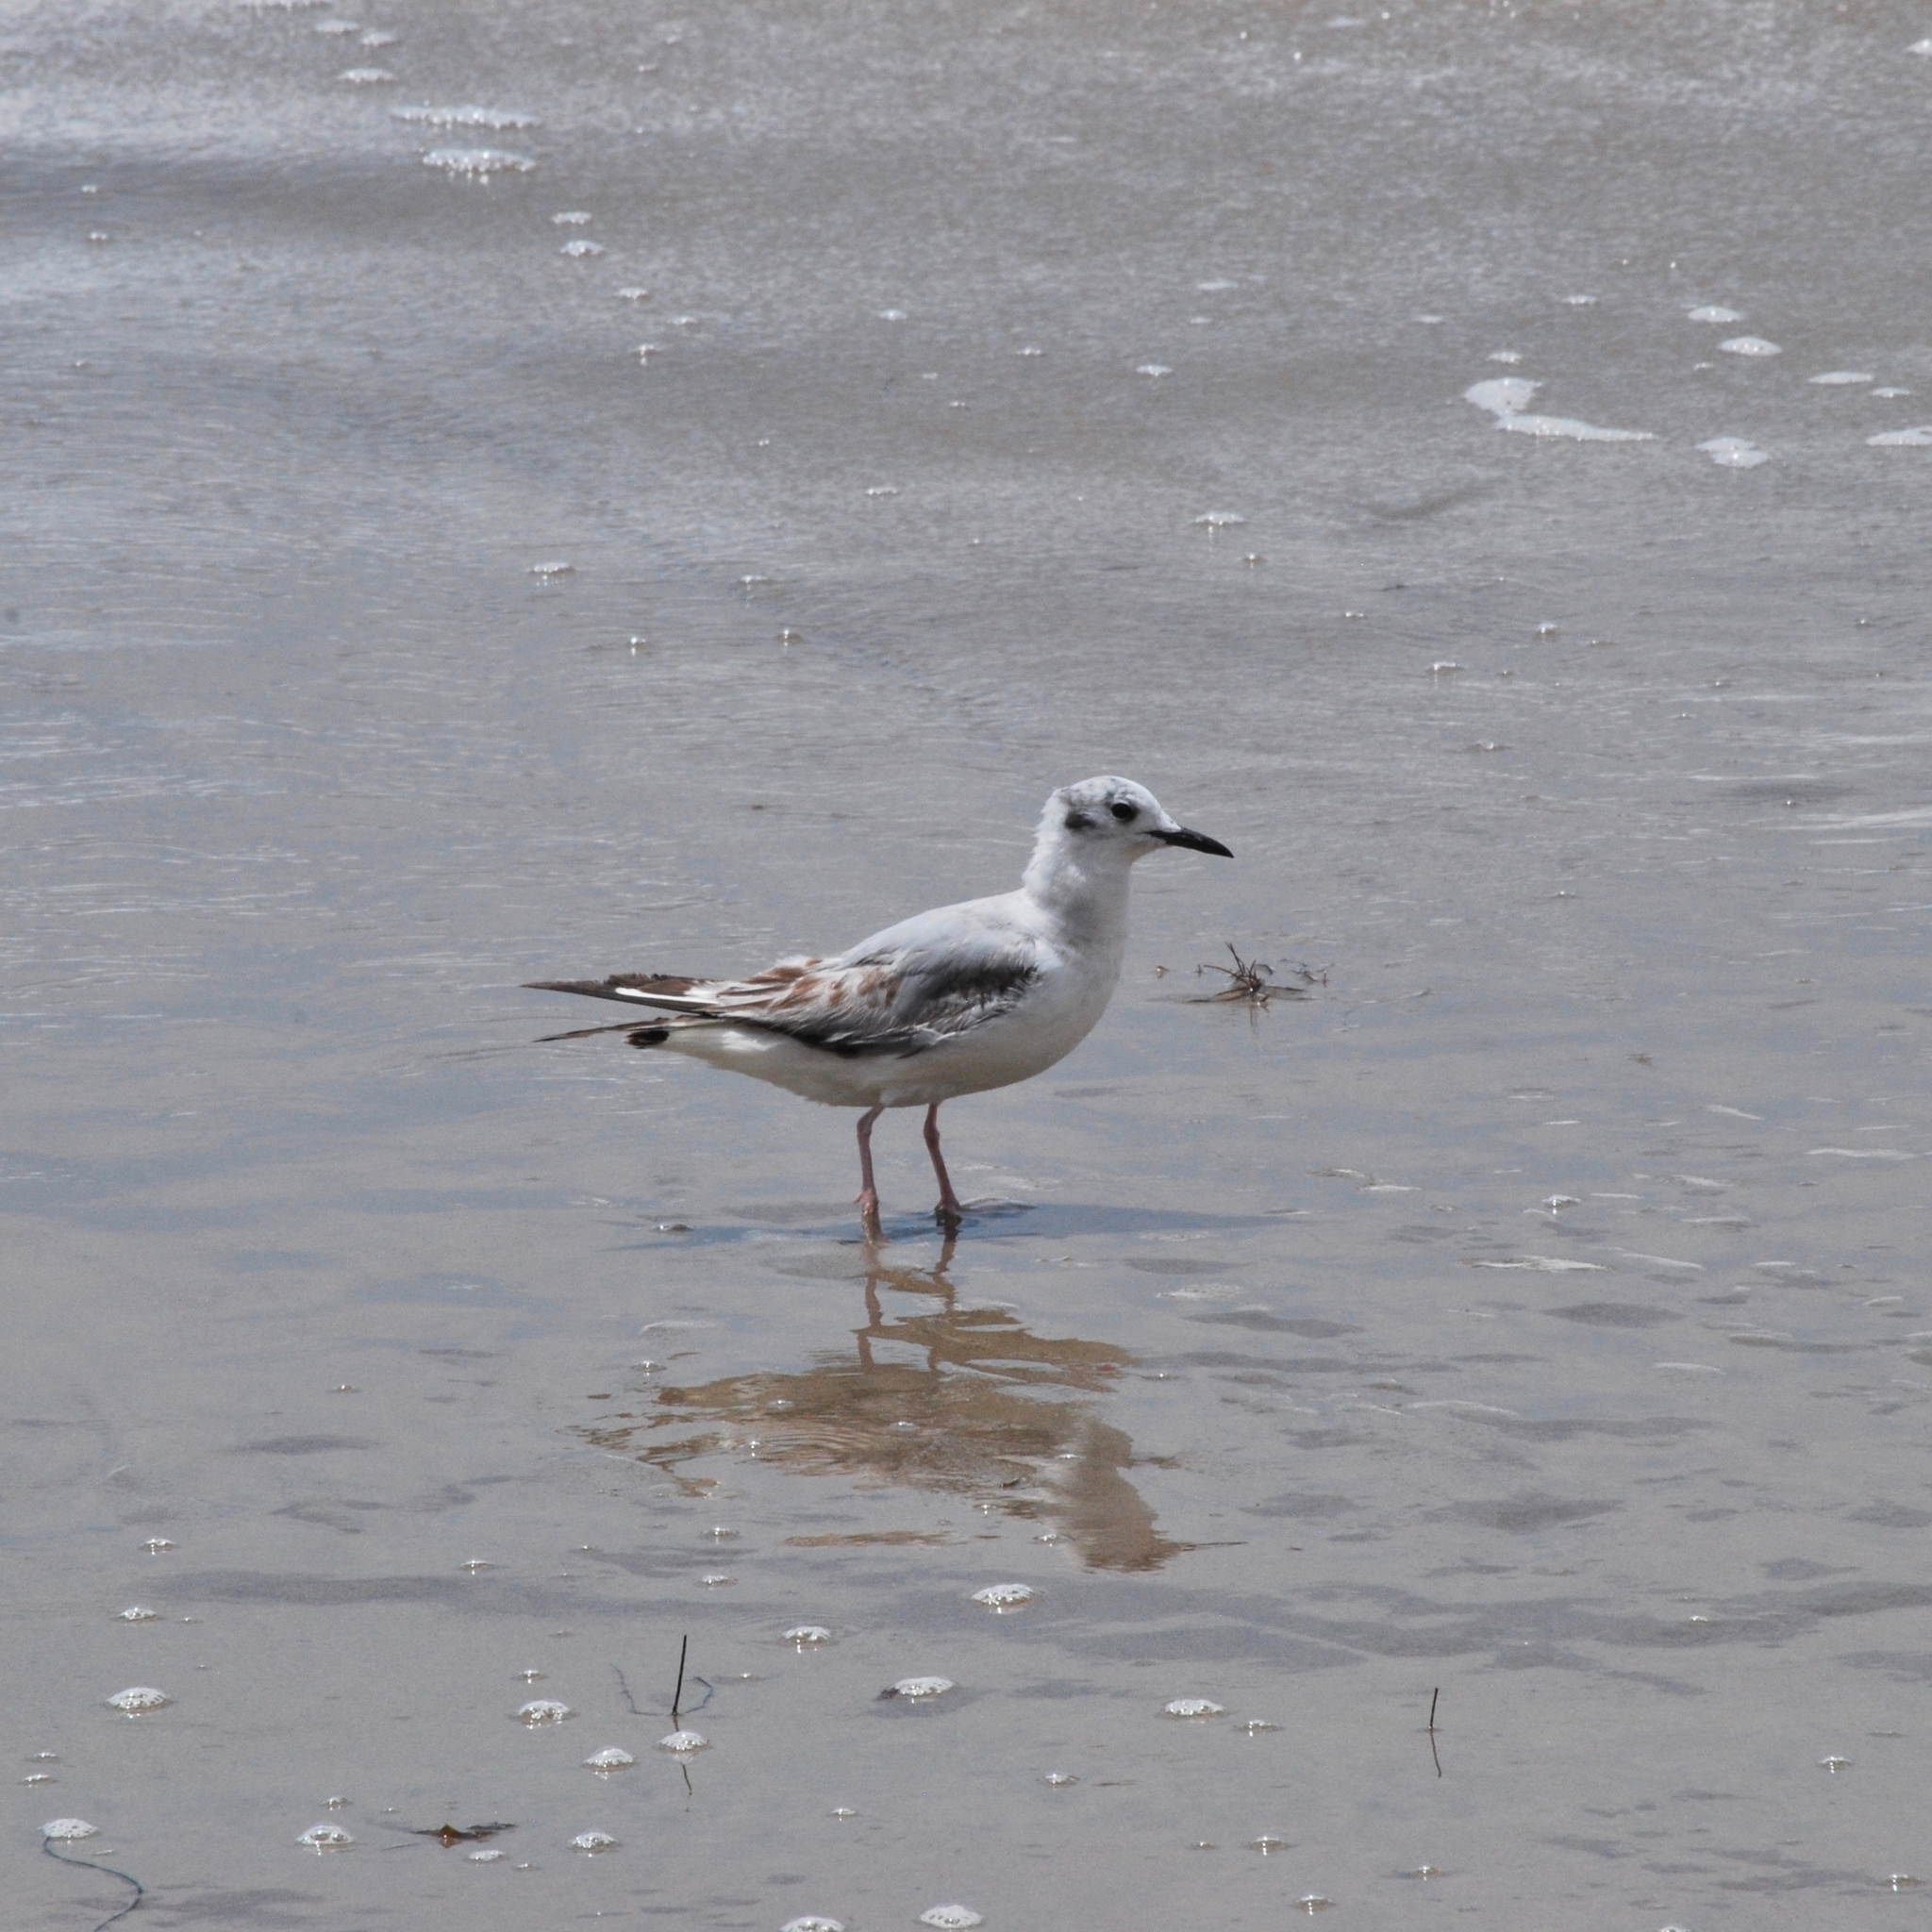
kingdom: Animalia
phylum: Chordata
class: Aves
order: Charadriiformes
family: Laridae
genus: Chroicocephalus
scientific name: Chroicocephalus philadelphia
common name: Bonaparte's gull
